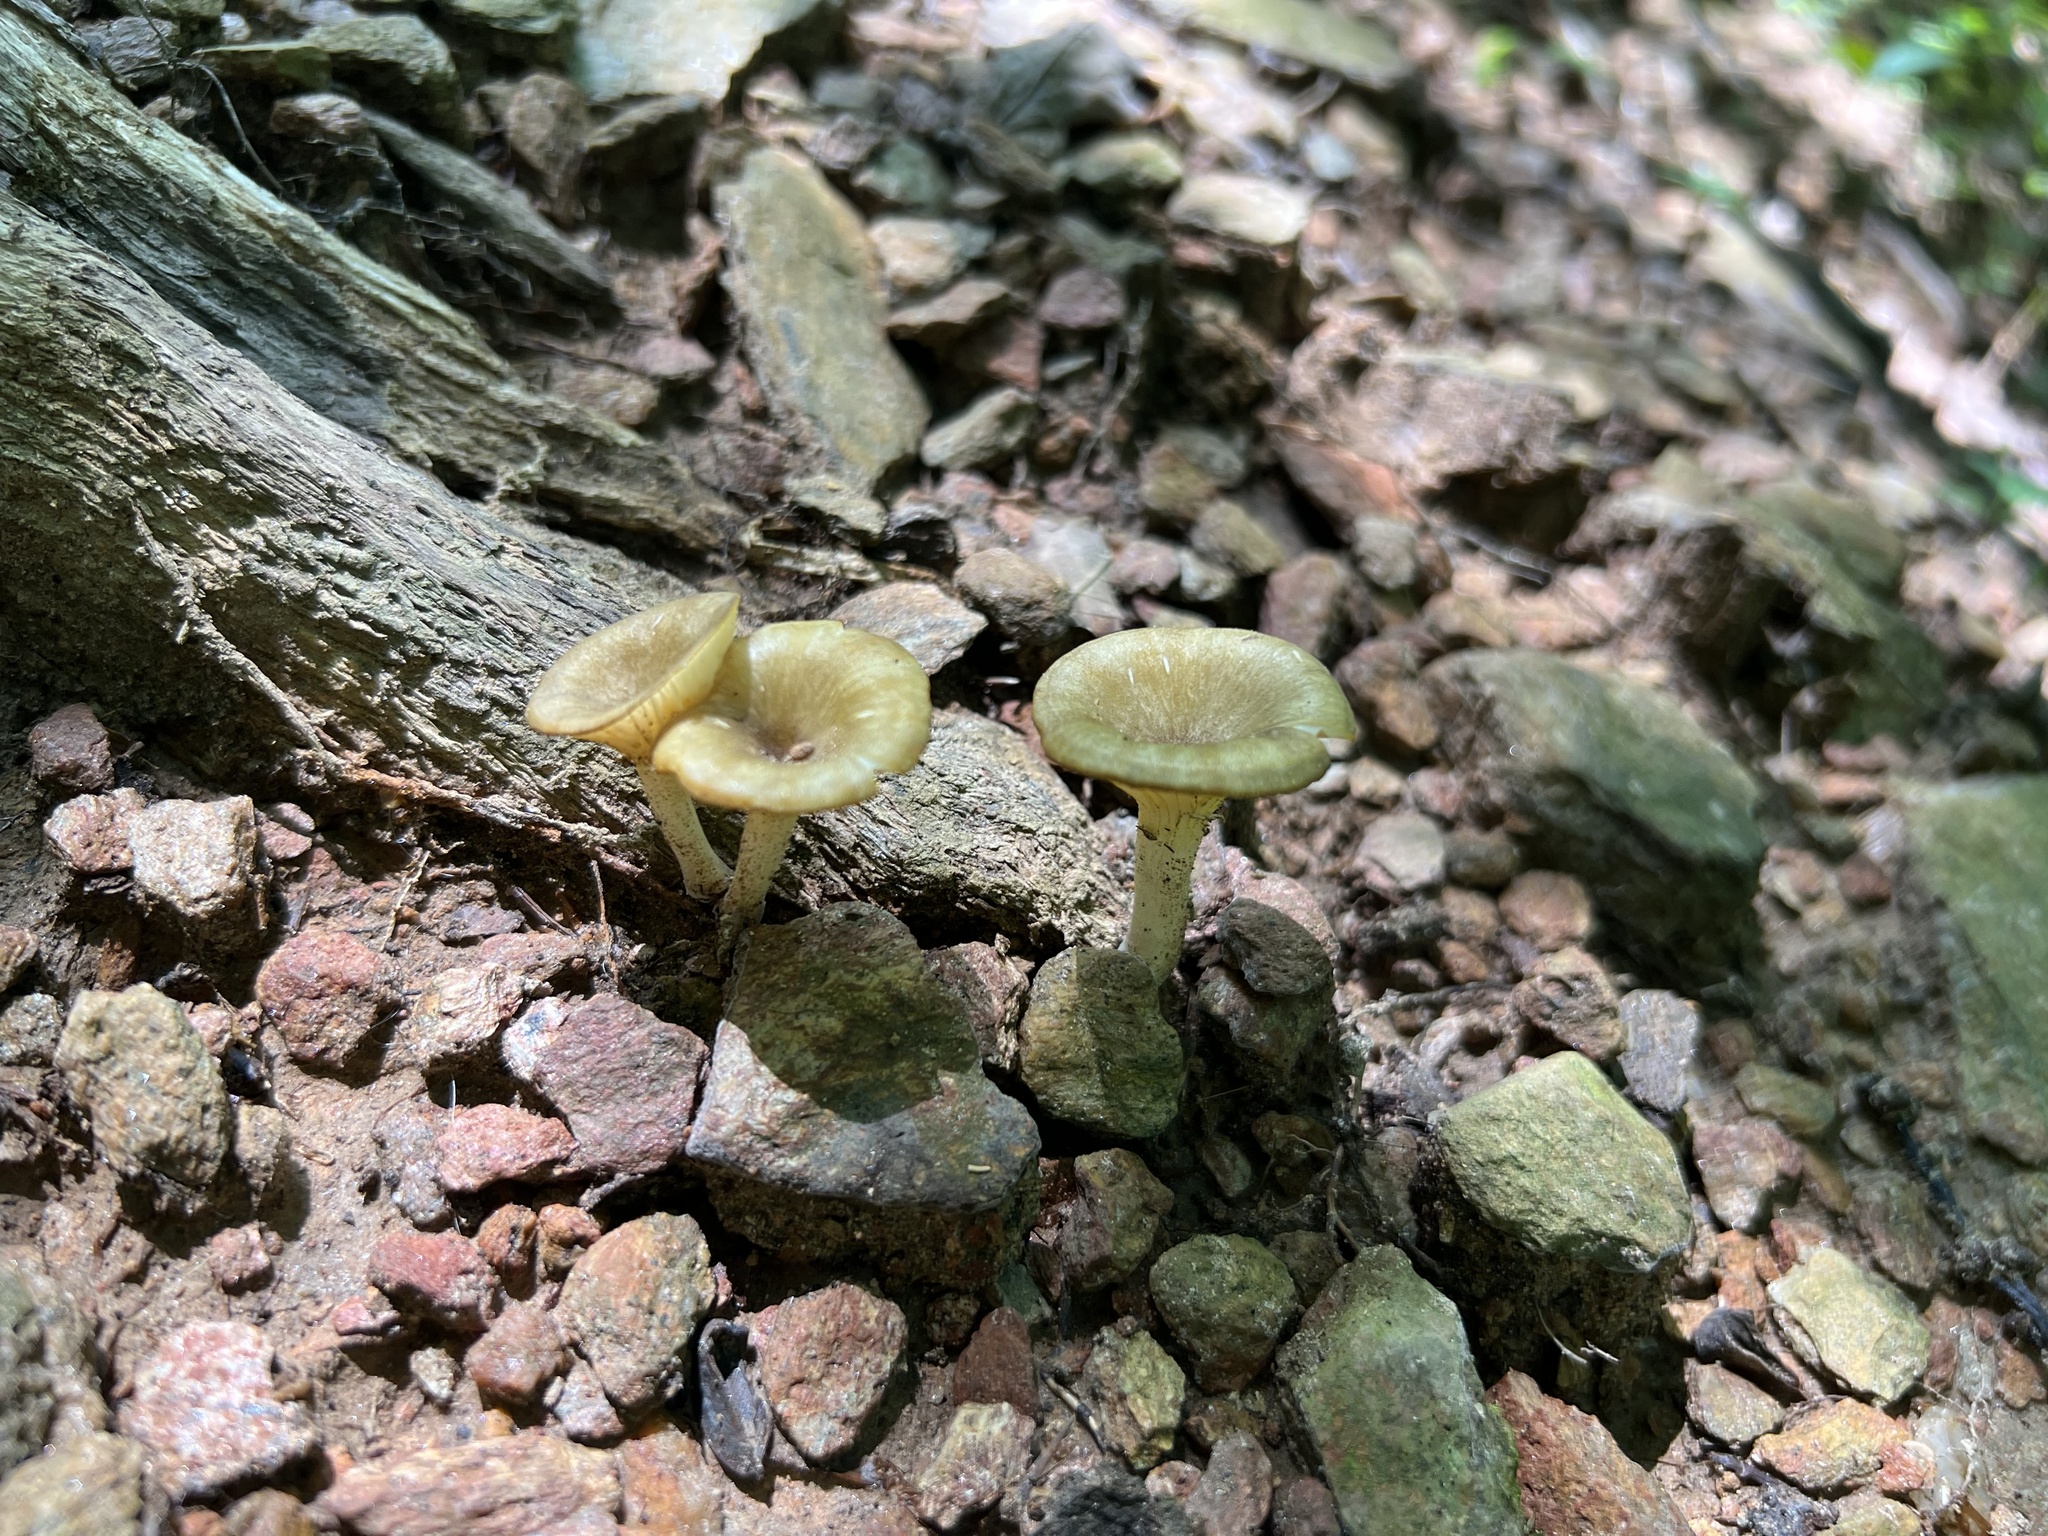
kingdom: Fungi
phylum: Basidiomycota
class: Agaricomycetes
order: Agaricales
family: Marasmiaceae
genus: Gerronema
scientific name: Gerronema strombodes
